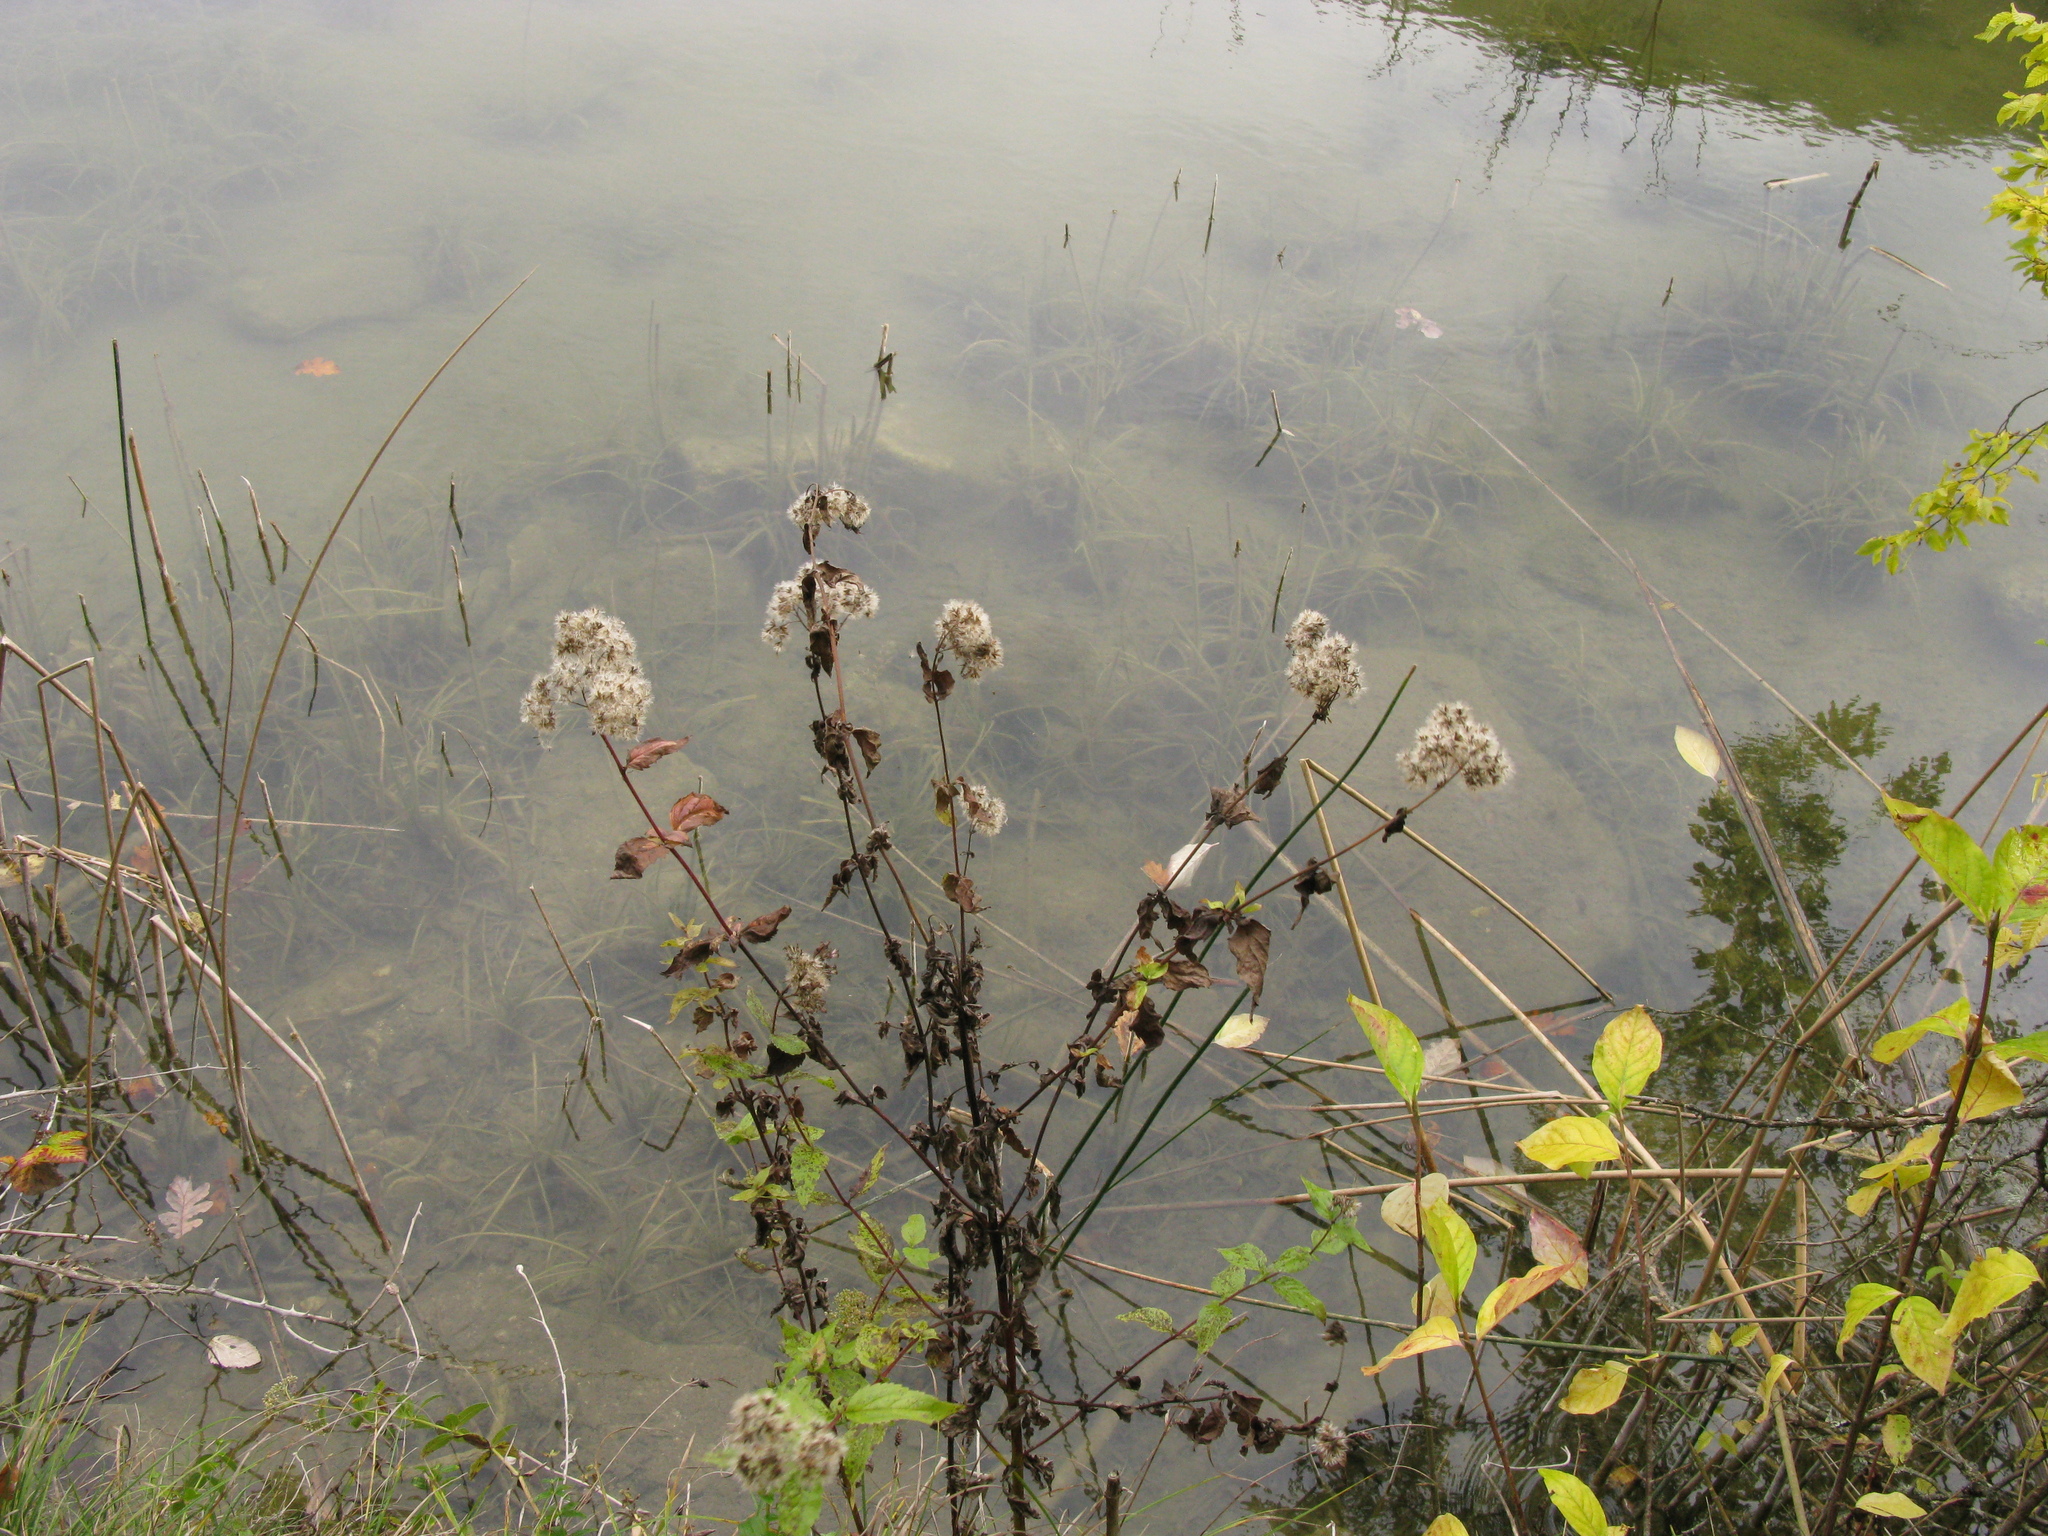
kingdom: Plantae
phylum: Tracheophyta
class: Magnoliopsida
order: Asterales
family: Asteraceae
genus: Eupatorium
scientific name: Eupatorium cannabinum
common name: Hemp-agrimony
